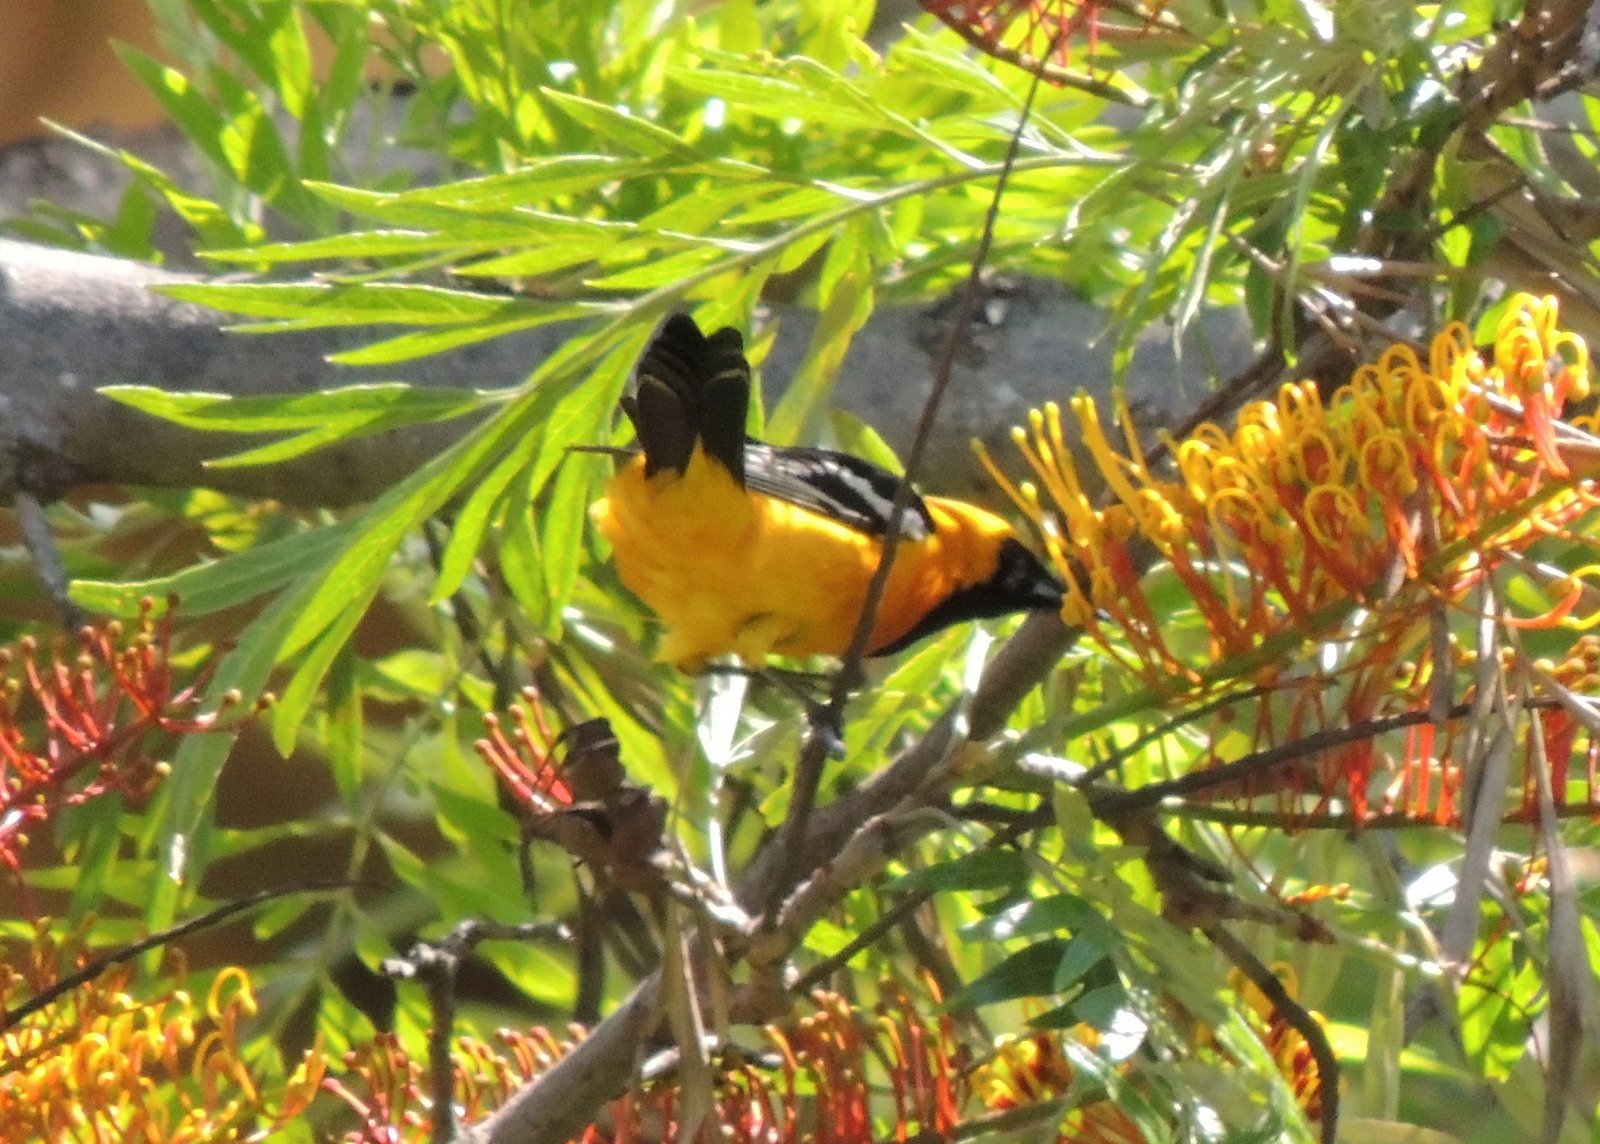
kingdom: Animalia
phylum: Chordata
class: Aves
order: Passeriformes
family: Icteridae
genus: Icterus
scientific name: Icterus cucullatus
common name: Hooded oriole
